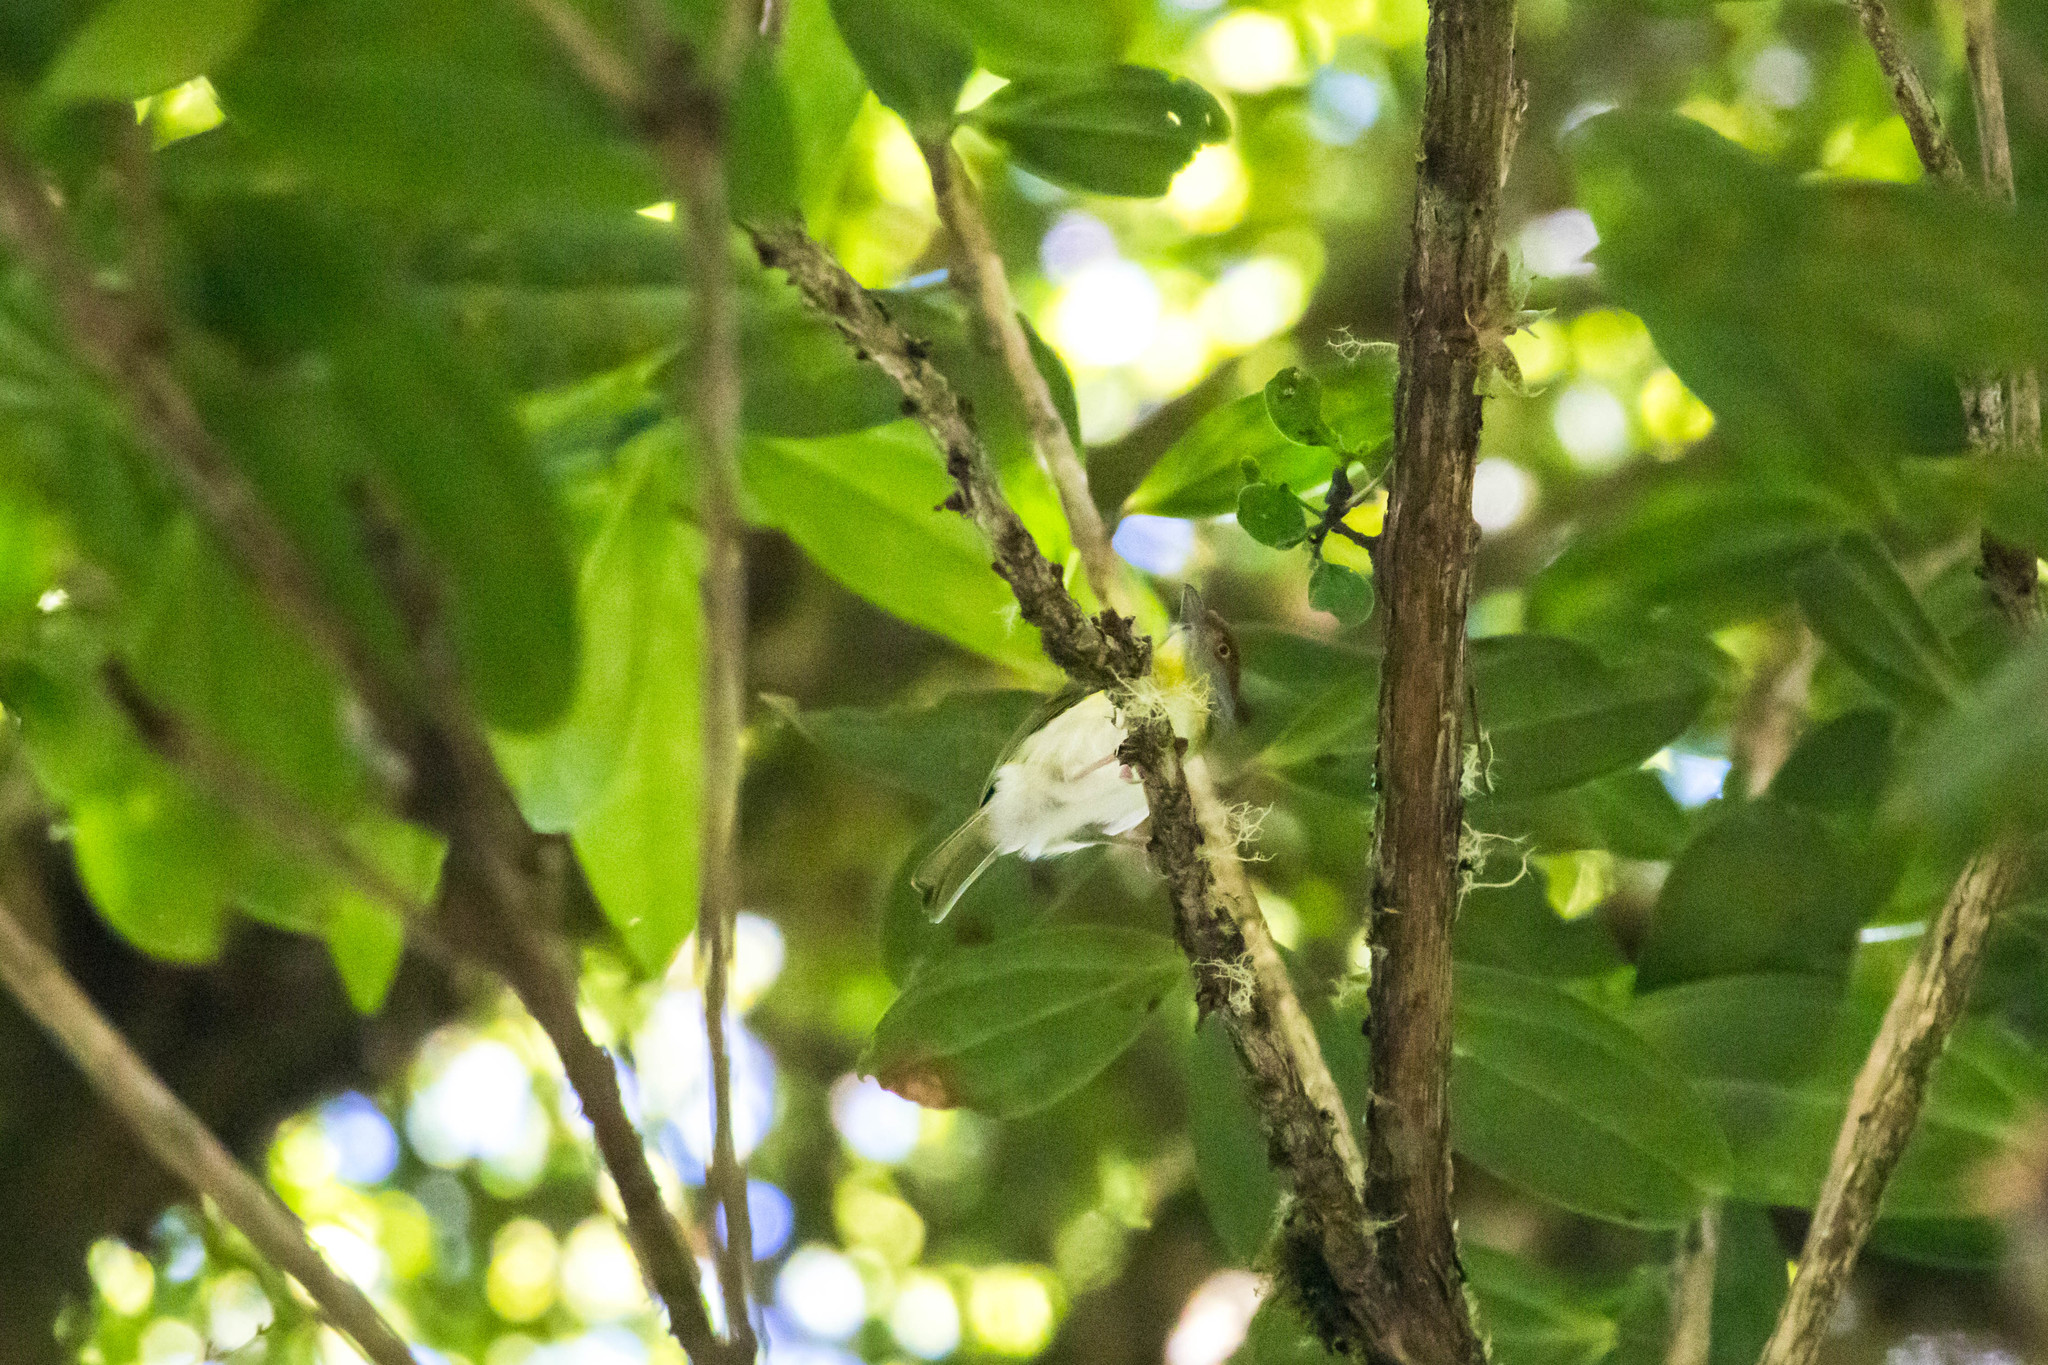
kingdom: Animalia
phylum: Chordata
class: Aves
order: Passeriformes
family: Vireonidae
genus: Cyclarhis
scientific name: Cyclarhis gujanensis
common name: Rufous-browed peppershrike
